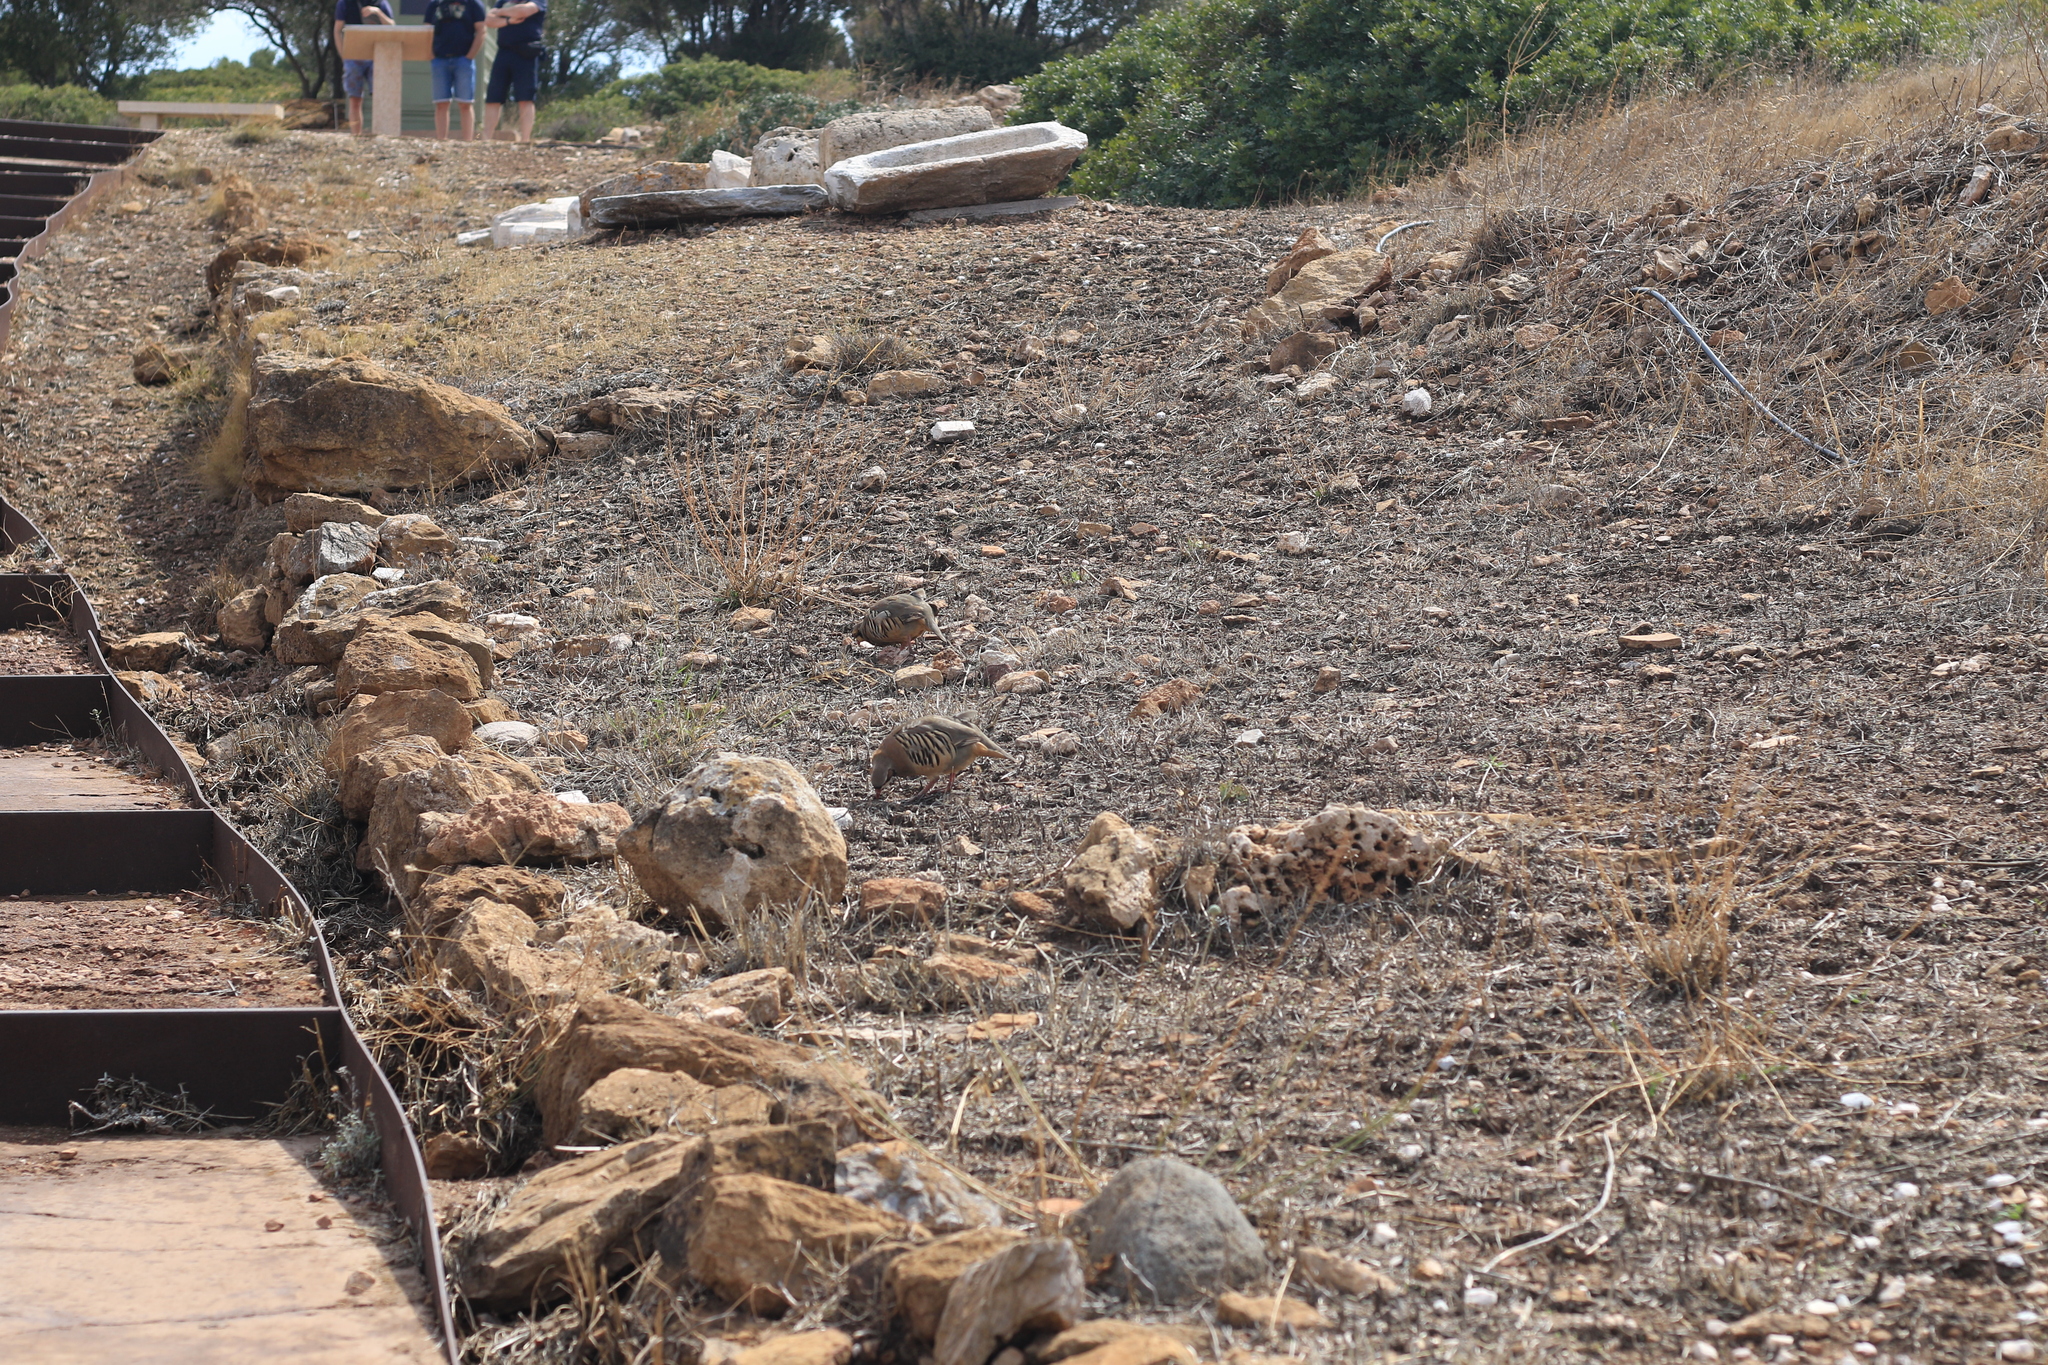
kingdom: Animalia
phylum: Chordata
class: Aves
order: Galliformes
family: Phasianidae
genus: Alectoris
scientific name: Alectoris chukar
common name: Chukar
